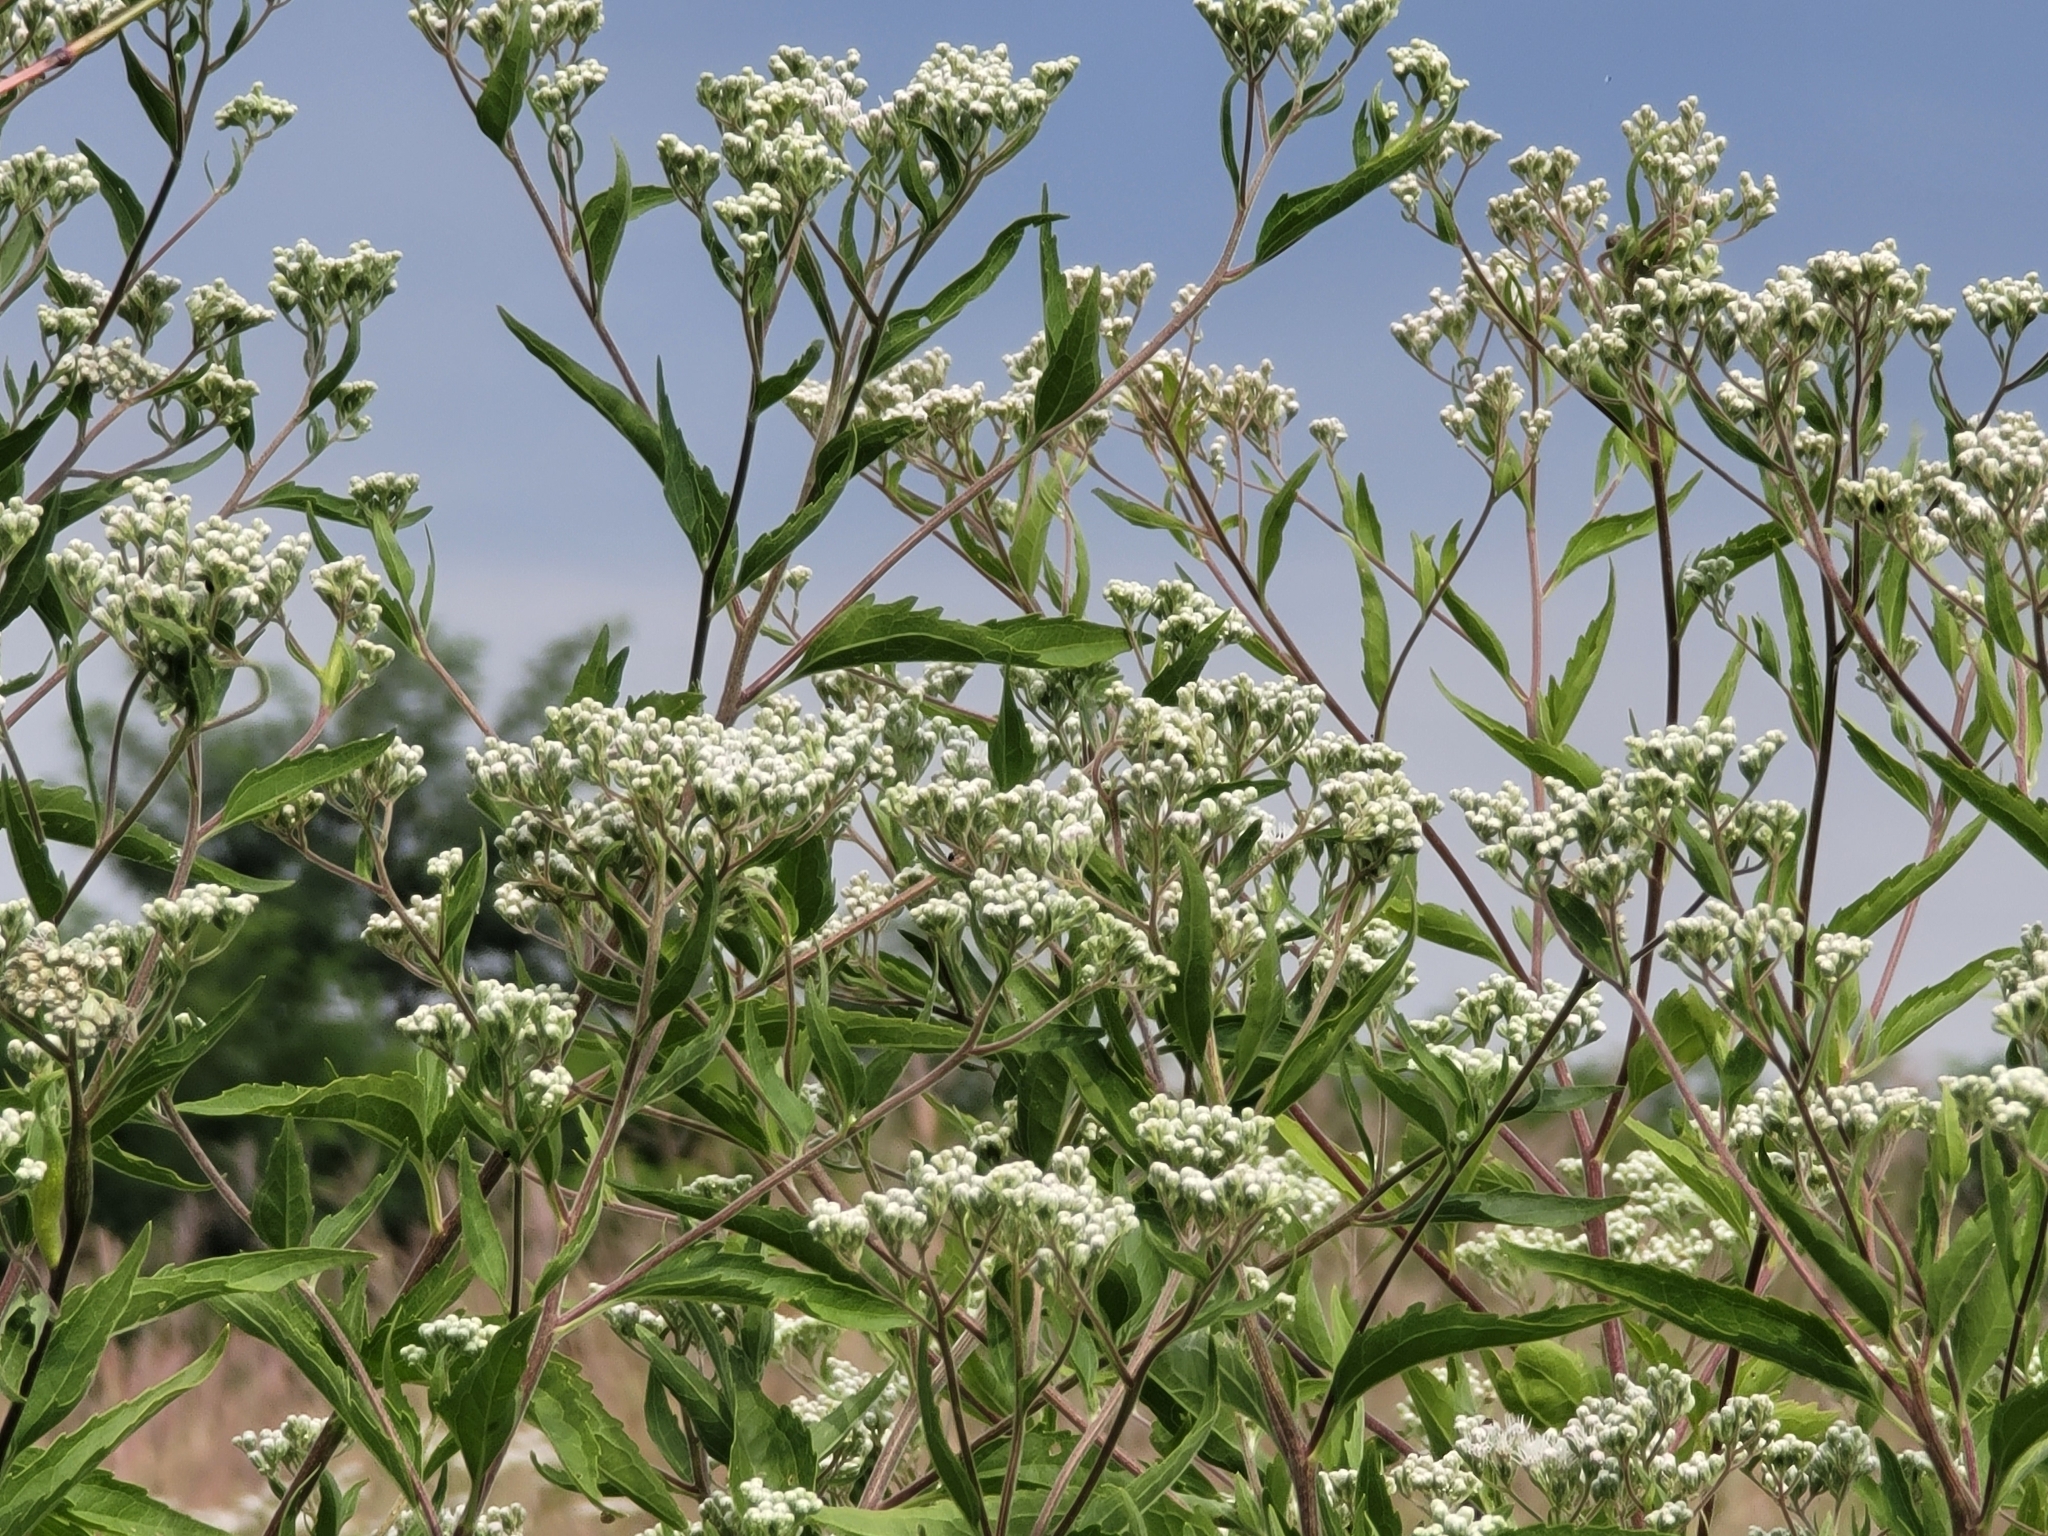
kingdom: Plantae
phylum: Tracheophyta
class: Magnoliopsida
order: Asterales
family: Asteraceae
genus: Eupatorium
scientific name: Eupatorium serotinum
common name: Late boneset
